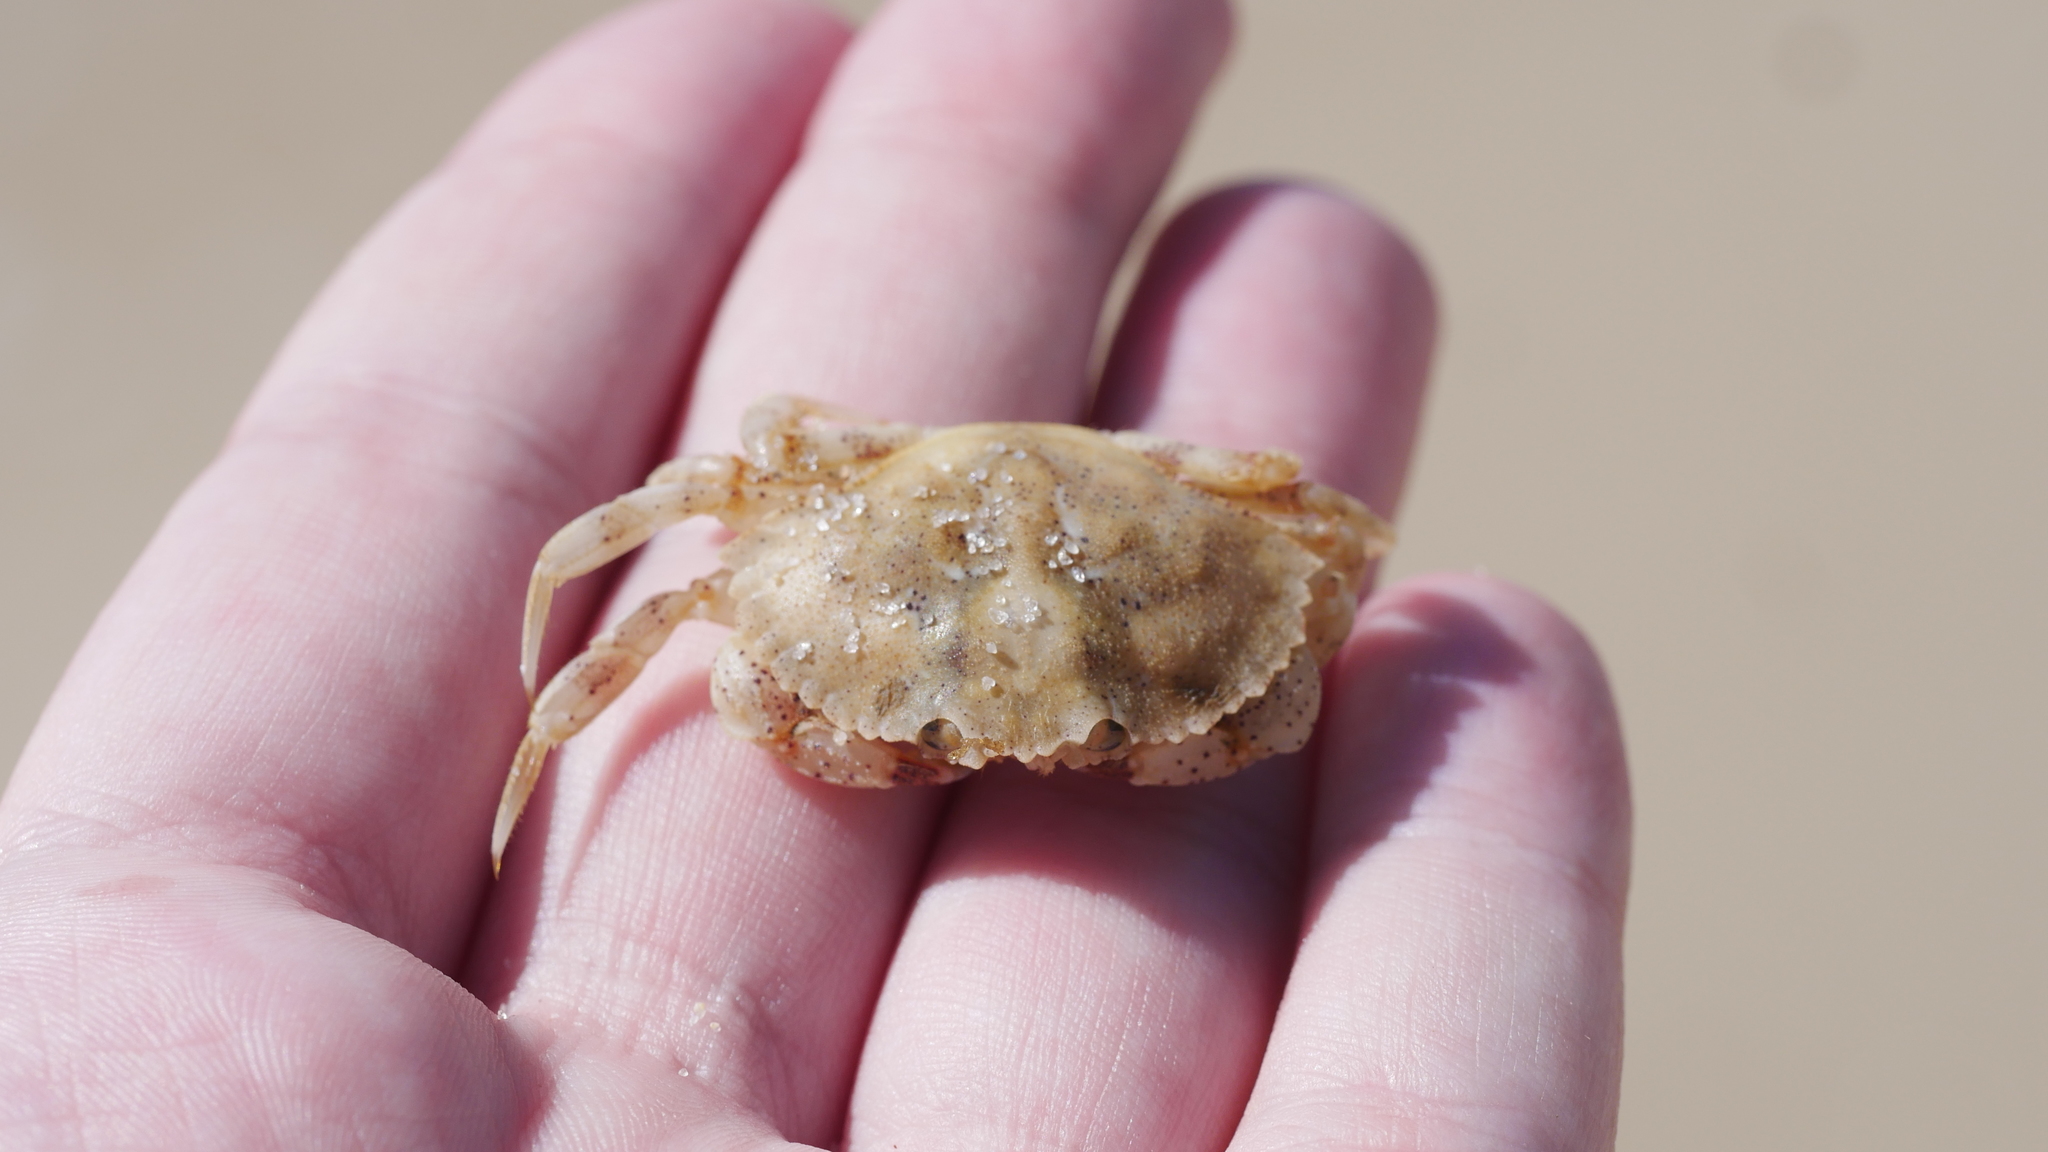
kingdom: Animalia
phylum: Arthropoda
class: Malacostraca
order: Decapoda
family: Cancridae
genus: Cancer
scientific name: Cancer irroratus
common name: Atlantic rock crab
